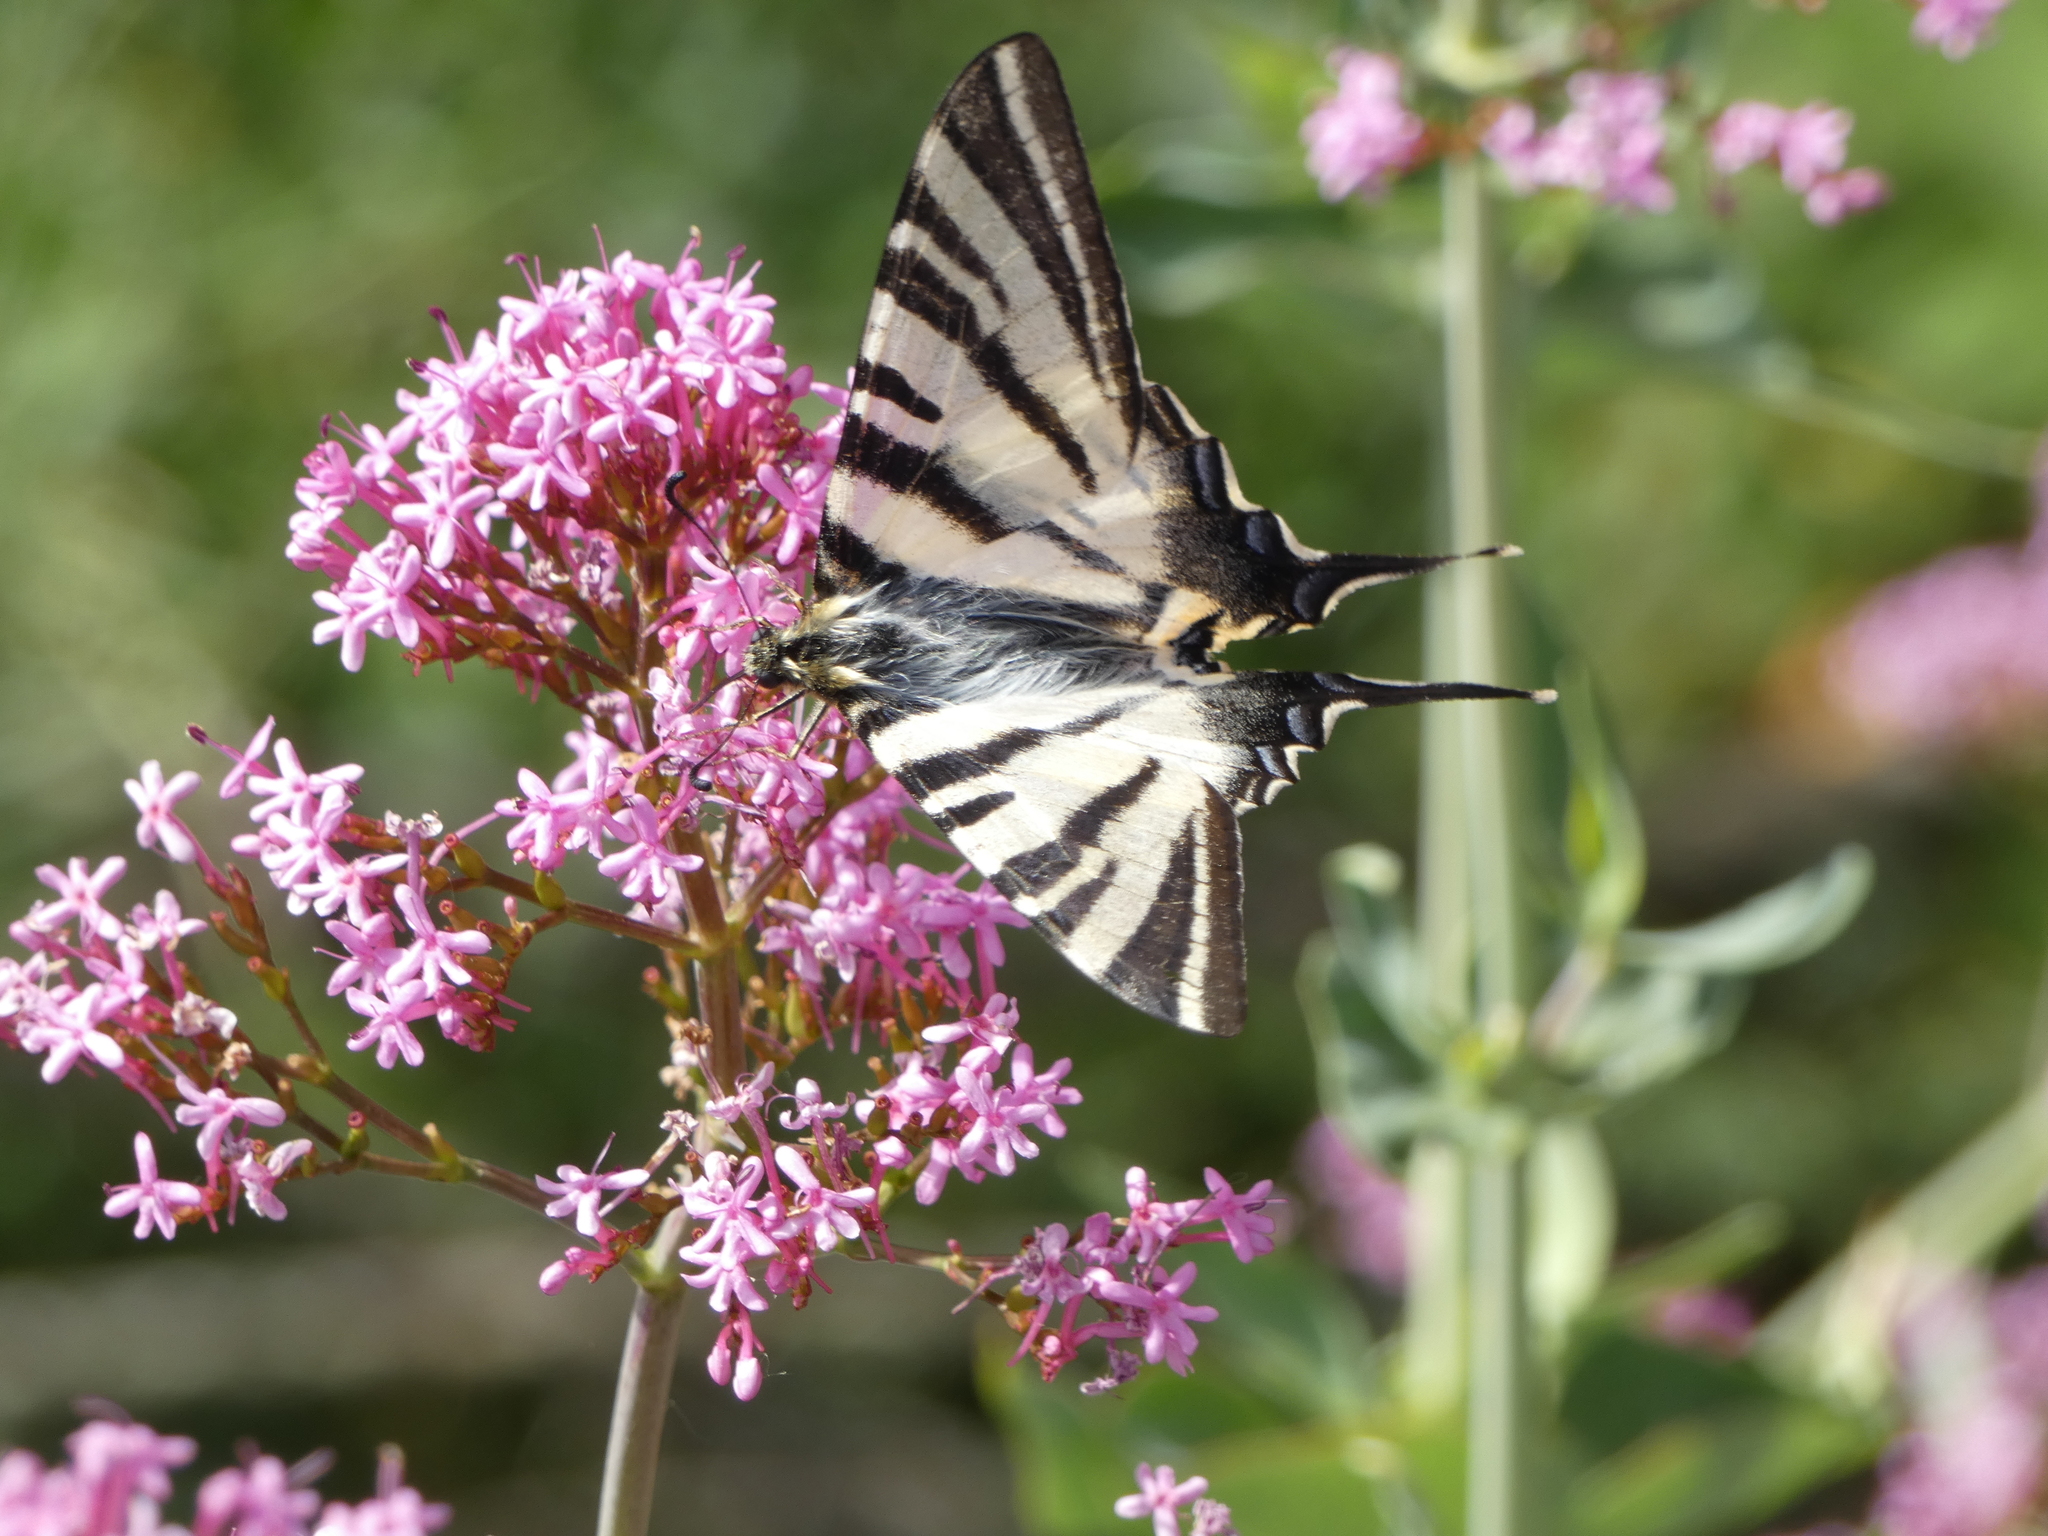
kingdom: Animalia
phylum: Arthropoda
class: Insecta
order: Lepidoptera
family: Papilionidae
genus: Iphiclides
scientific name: Iphiclides podalirius
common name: Scarce swallowtail
